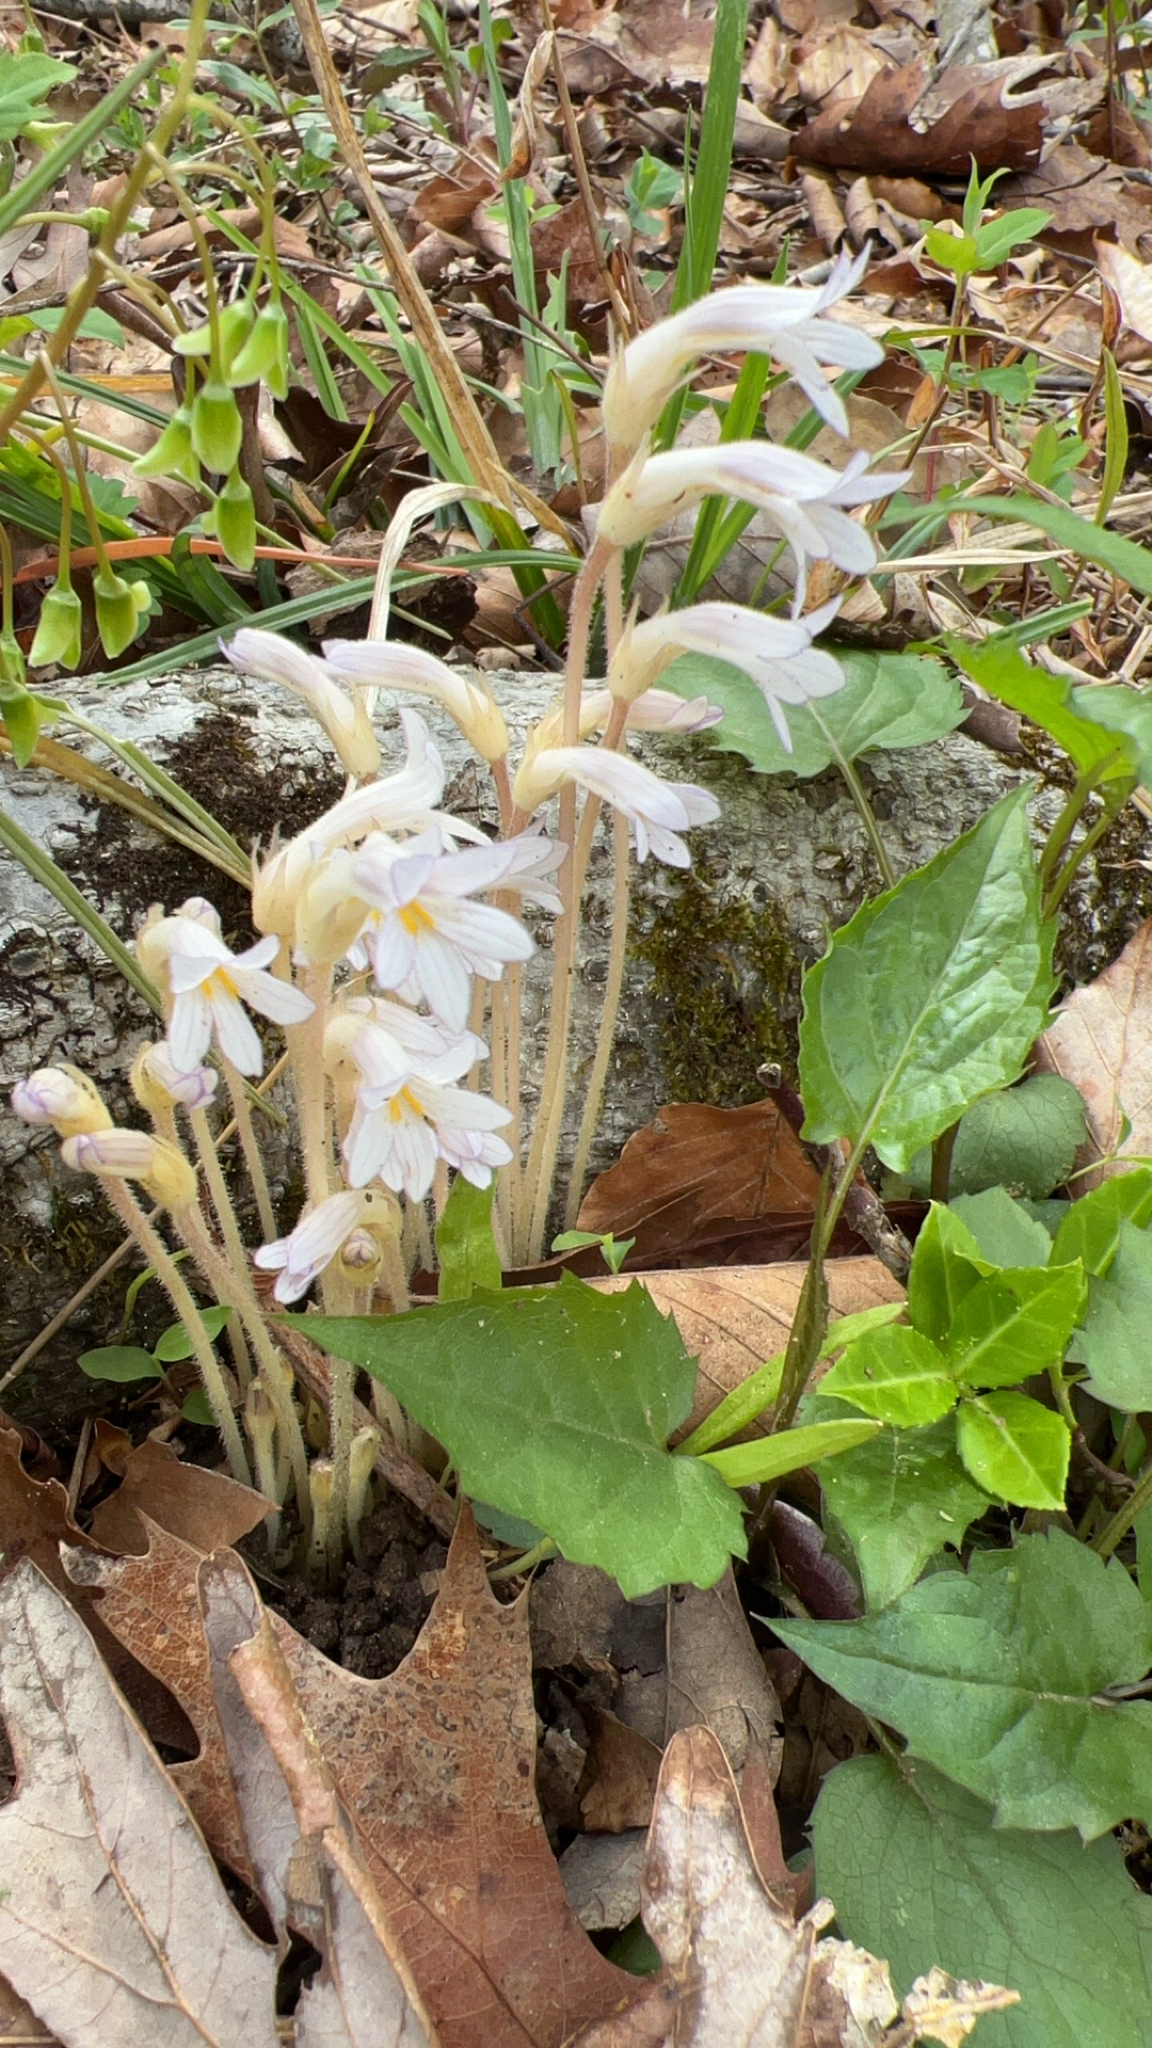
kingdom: Plantae
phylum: Tracheophyta
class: Magnoliopsida
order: Lamiales
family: Orobanchaceae
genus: Aphyllon
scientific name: Aphyllon uniflorum
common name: One-flowered broomrape
